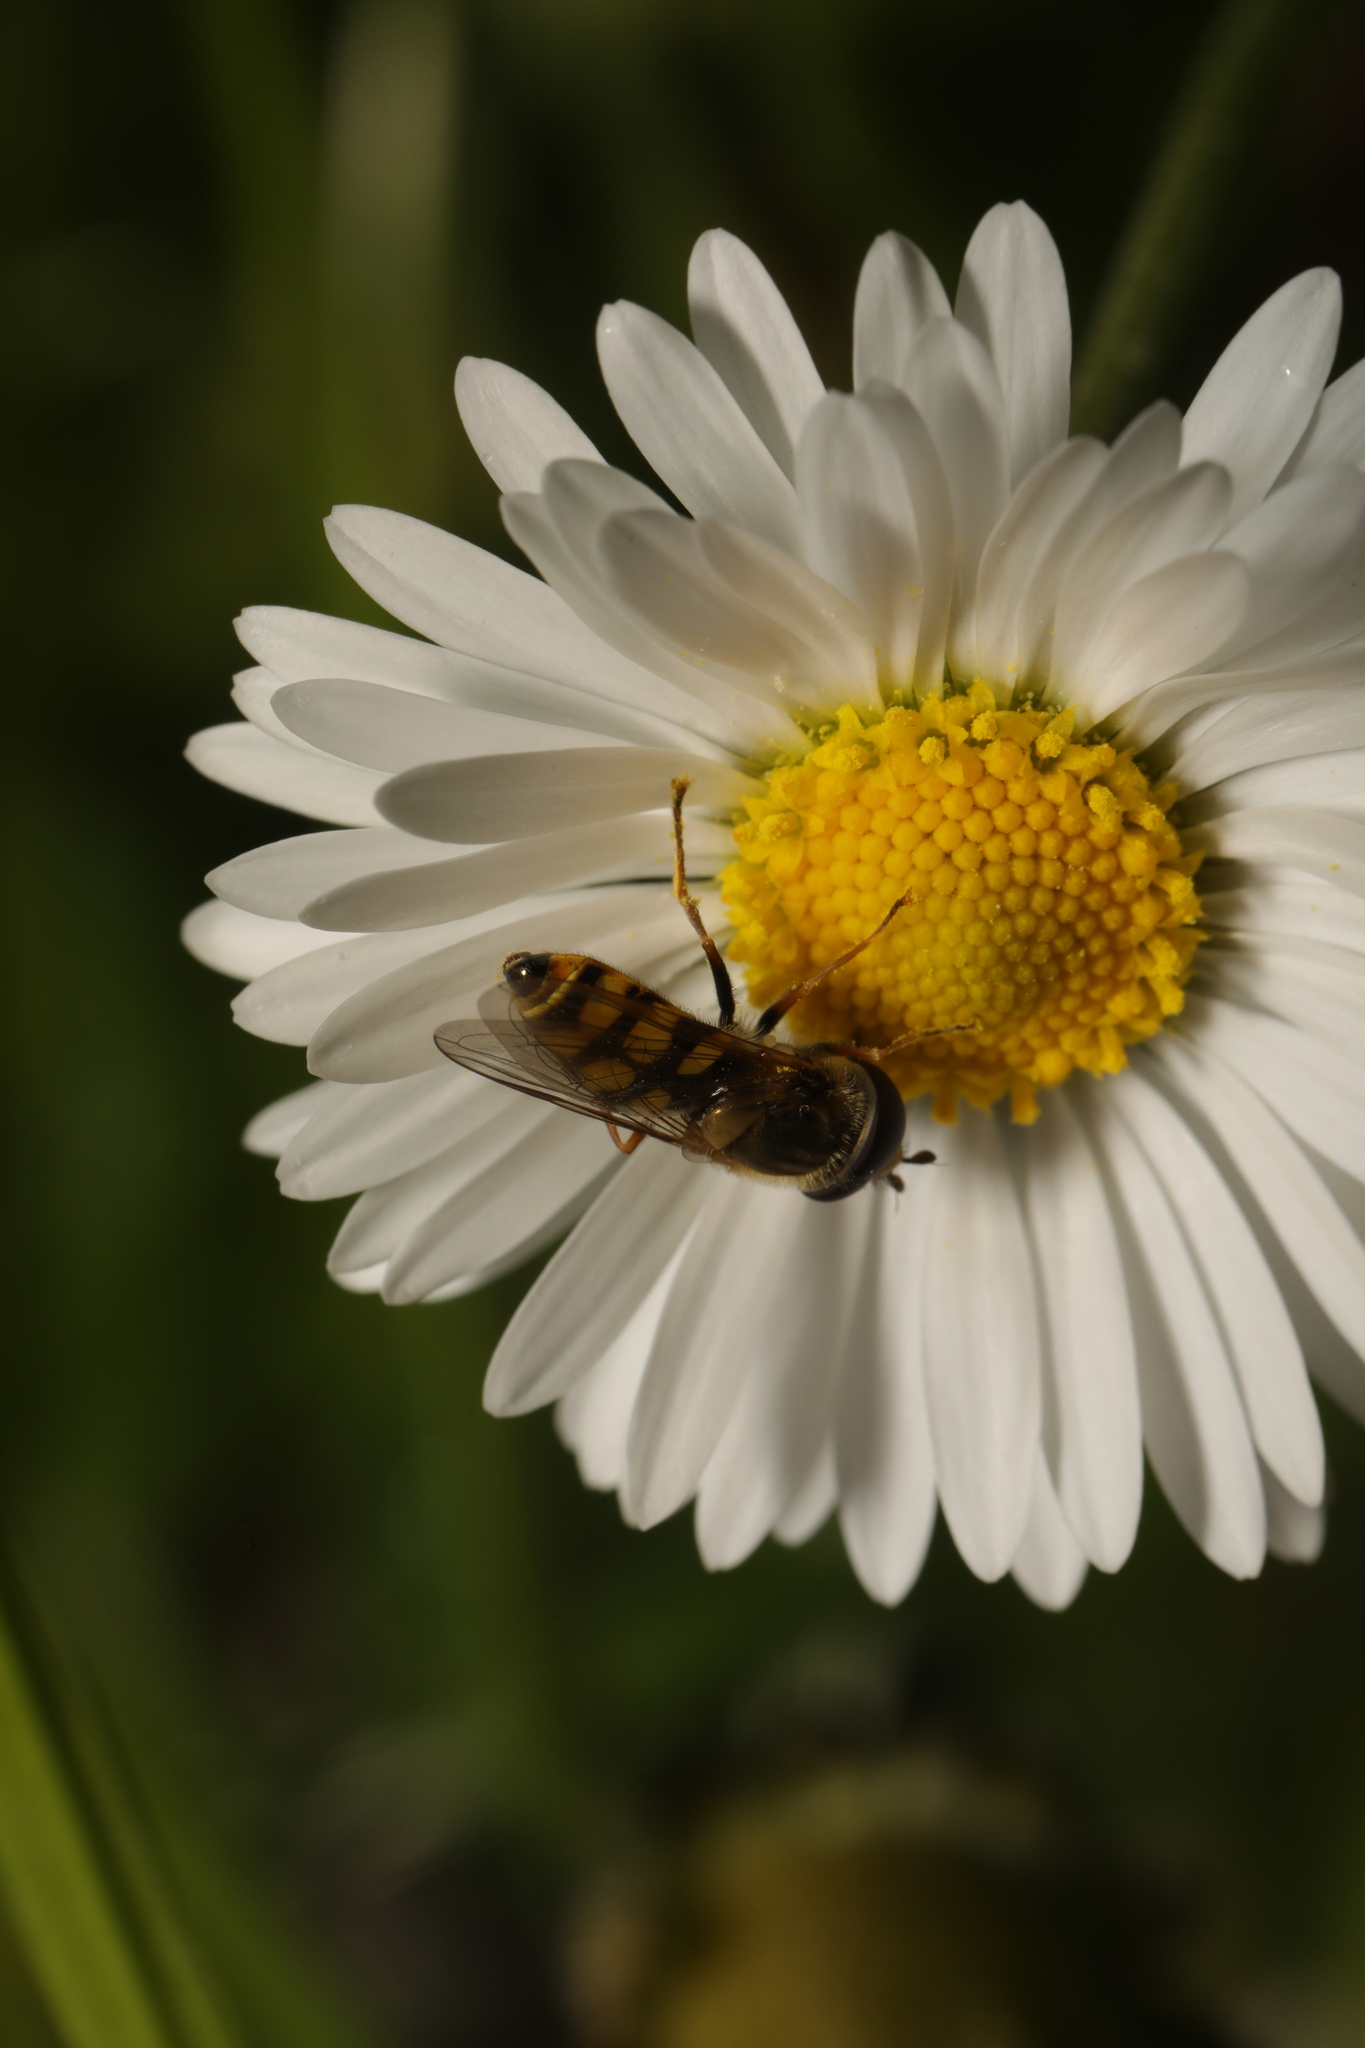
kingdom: Animalia
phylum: Arthropoda
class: Insecta
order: Diptera
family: Syrphidae
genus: Eupeodes
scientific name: Eupeodes corollae
